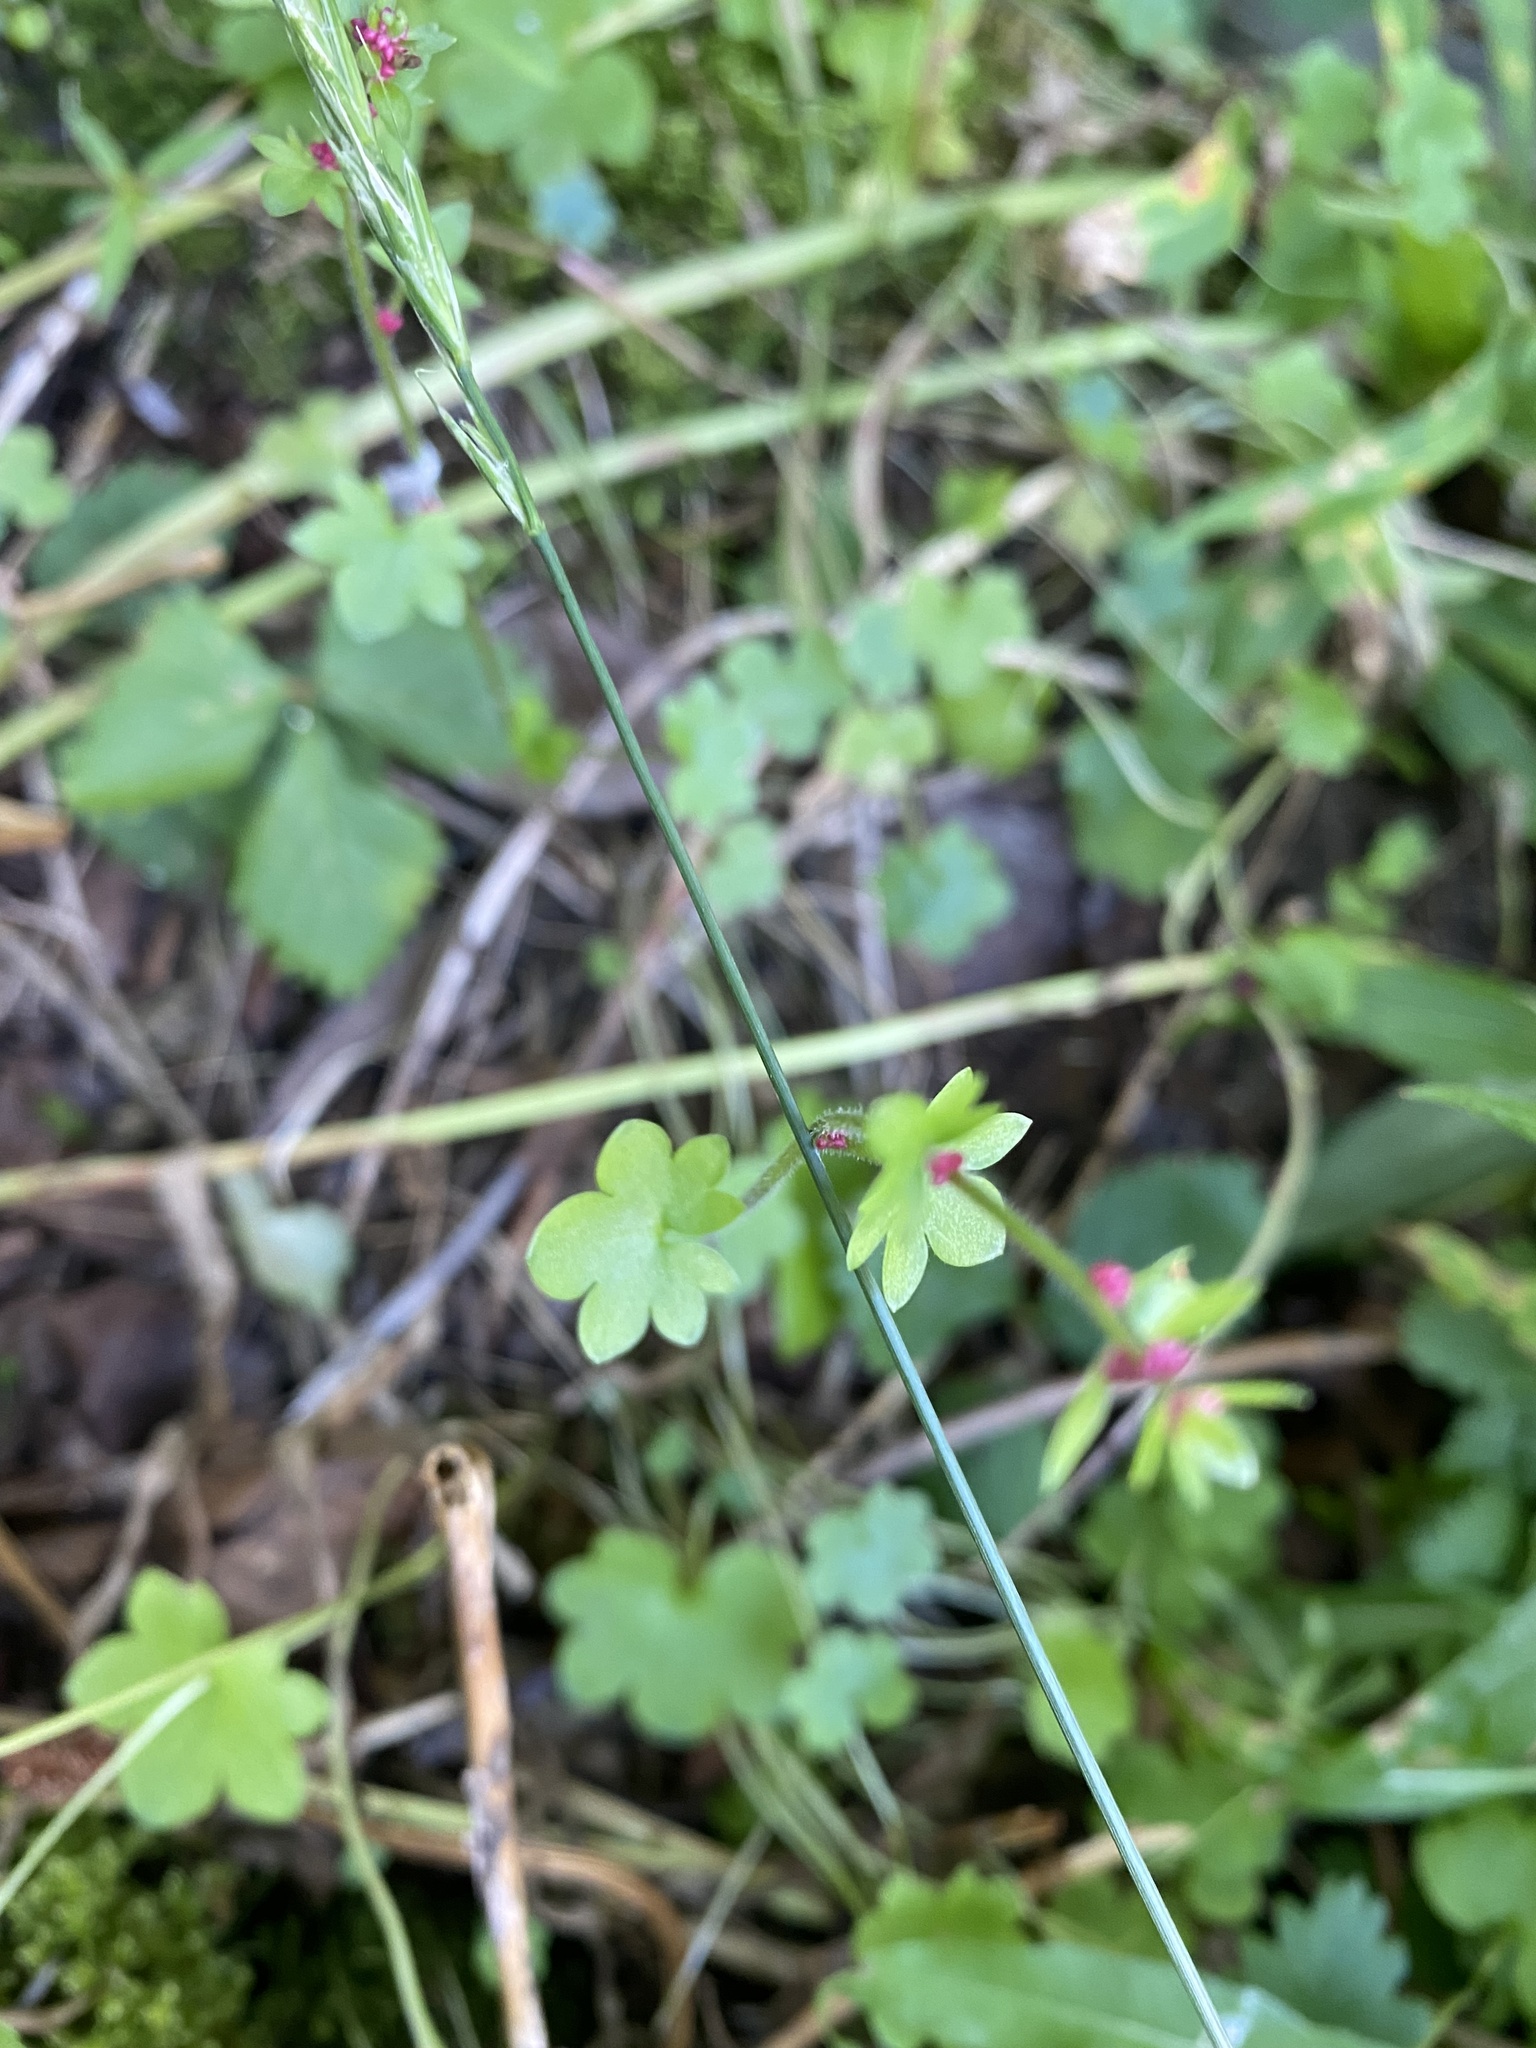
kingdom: Plantae
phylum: Tracheophyta
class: Magnoliopsida
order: Saxifragales
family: Saxifragaceae
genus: Saxifraga
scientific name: Saxifraga cernua
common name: Drooping saxifrage
